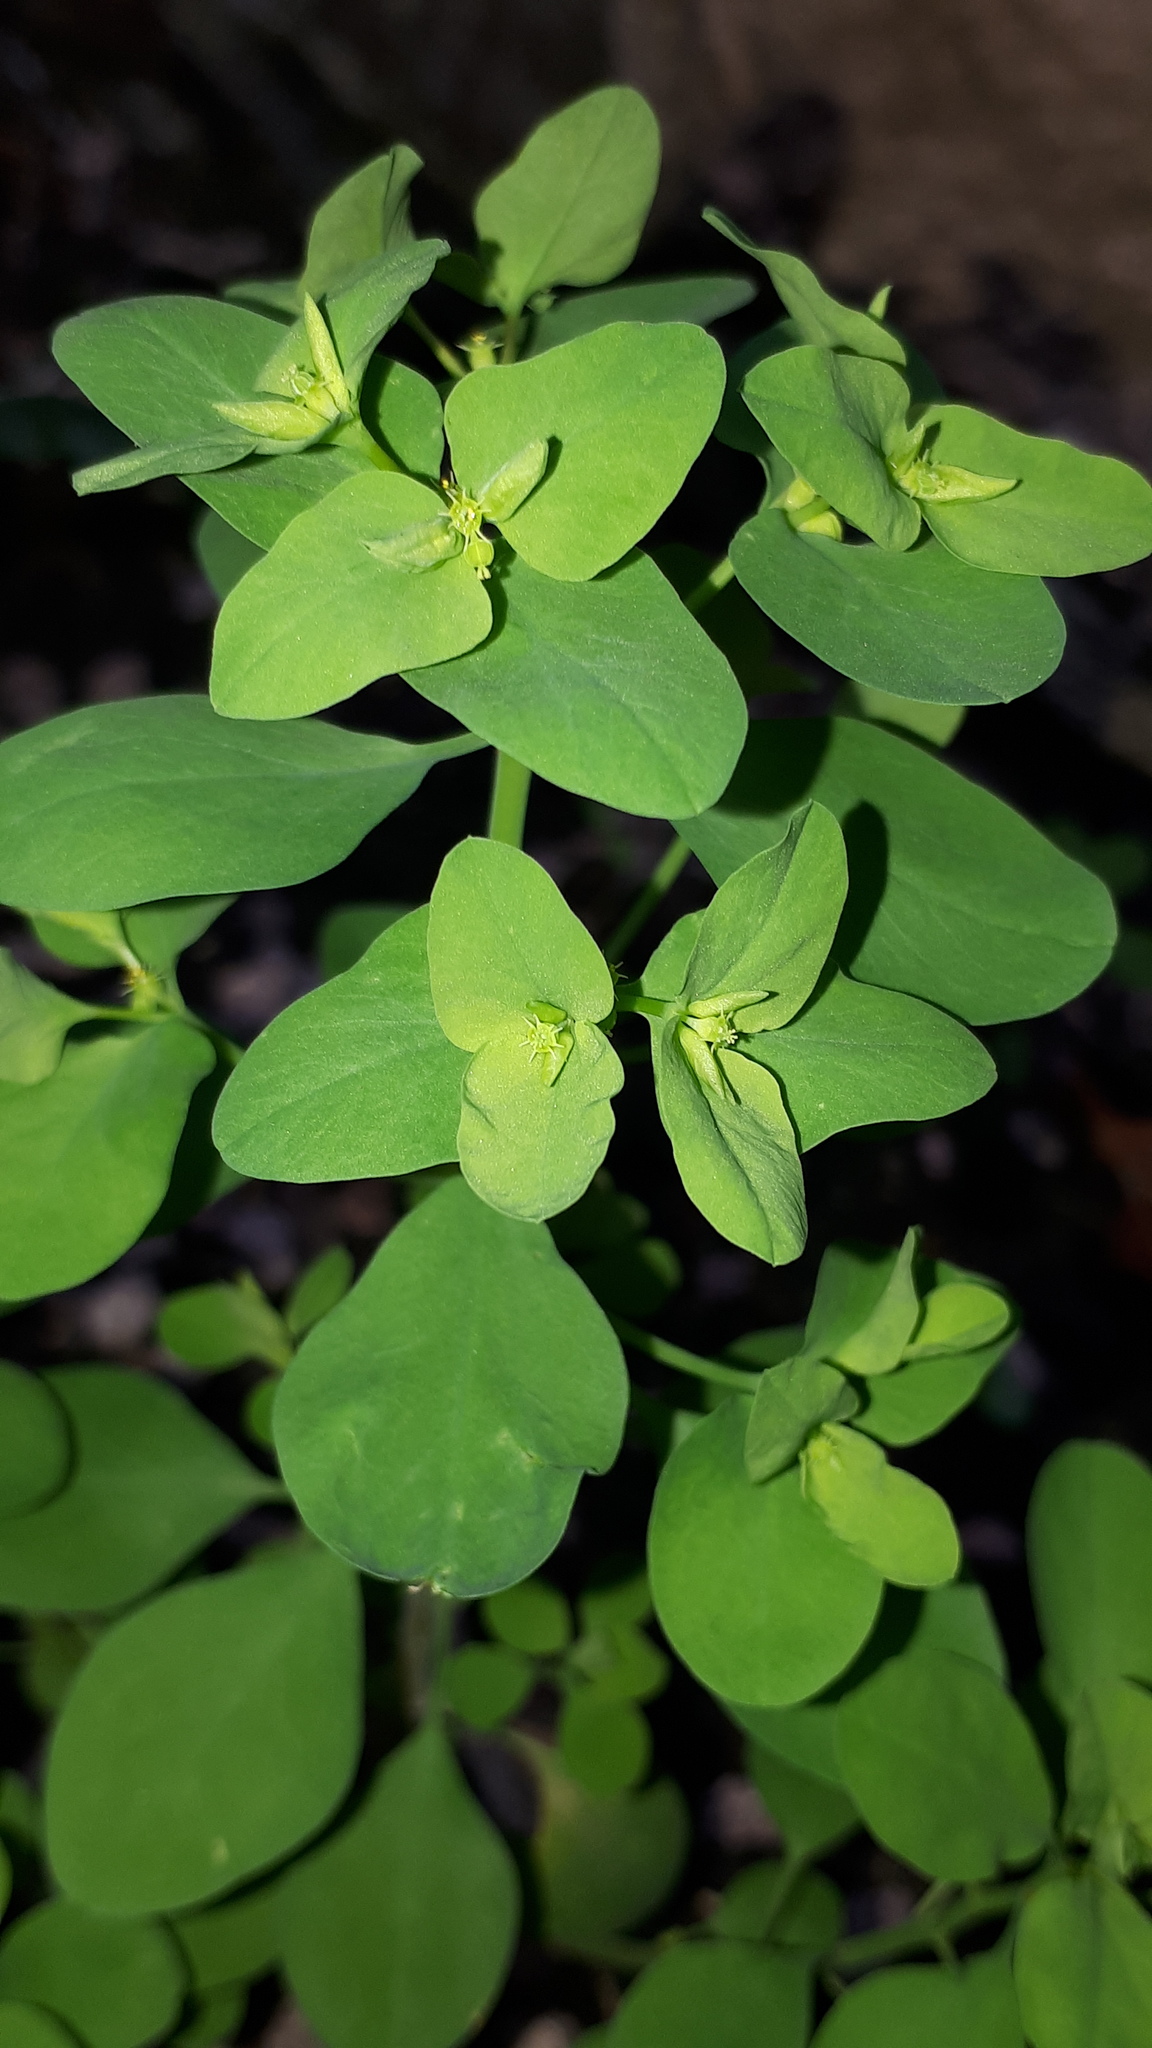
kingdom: Plantae
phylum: Tracheophyta
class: Magnoliopsida
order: Malpighiales
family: Euphorbiaceae
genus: Euphorbia
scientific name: Euphorbia peplus
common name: Petty spurge
